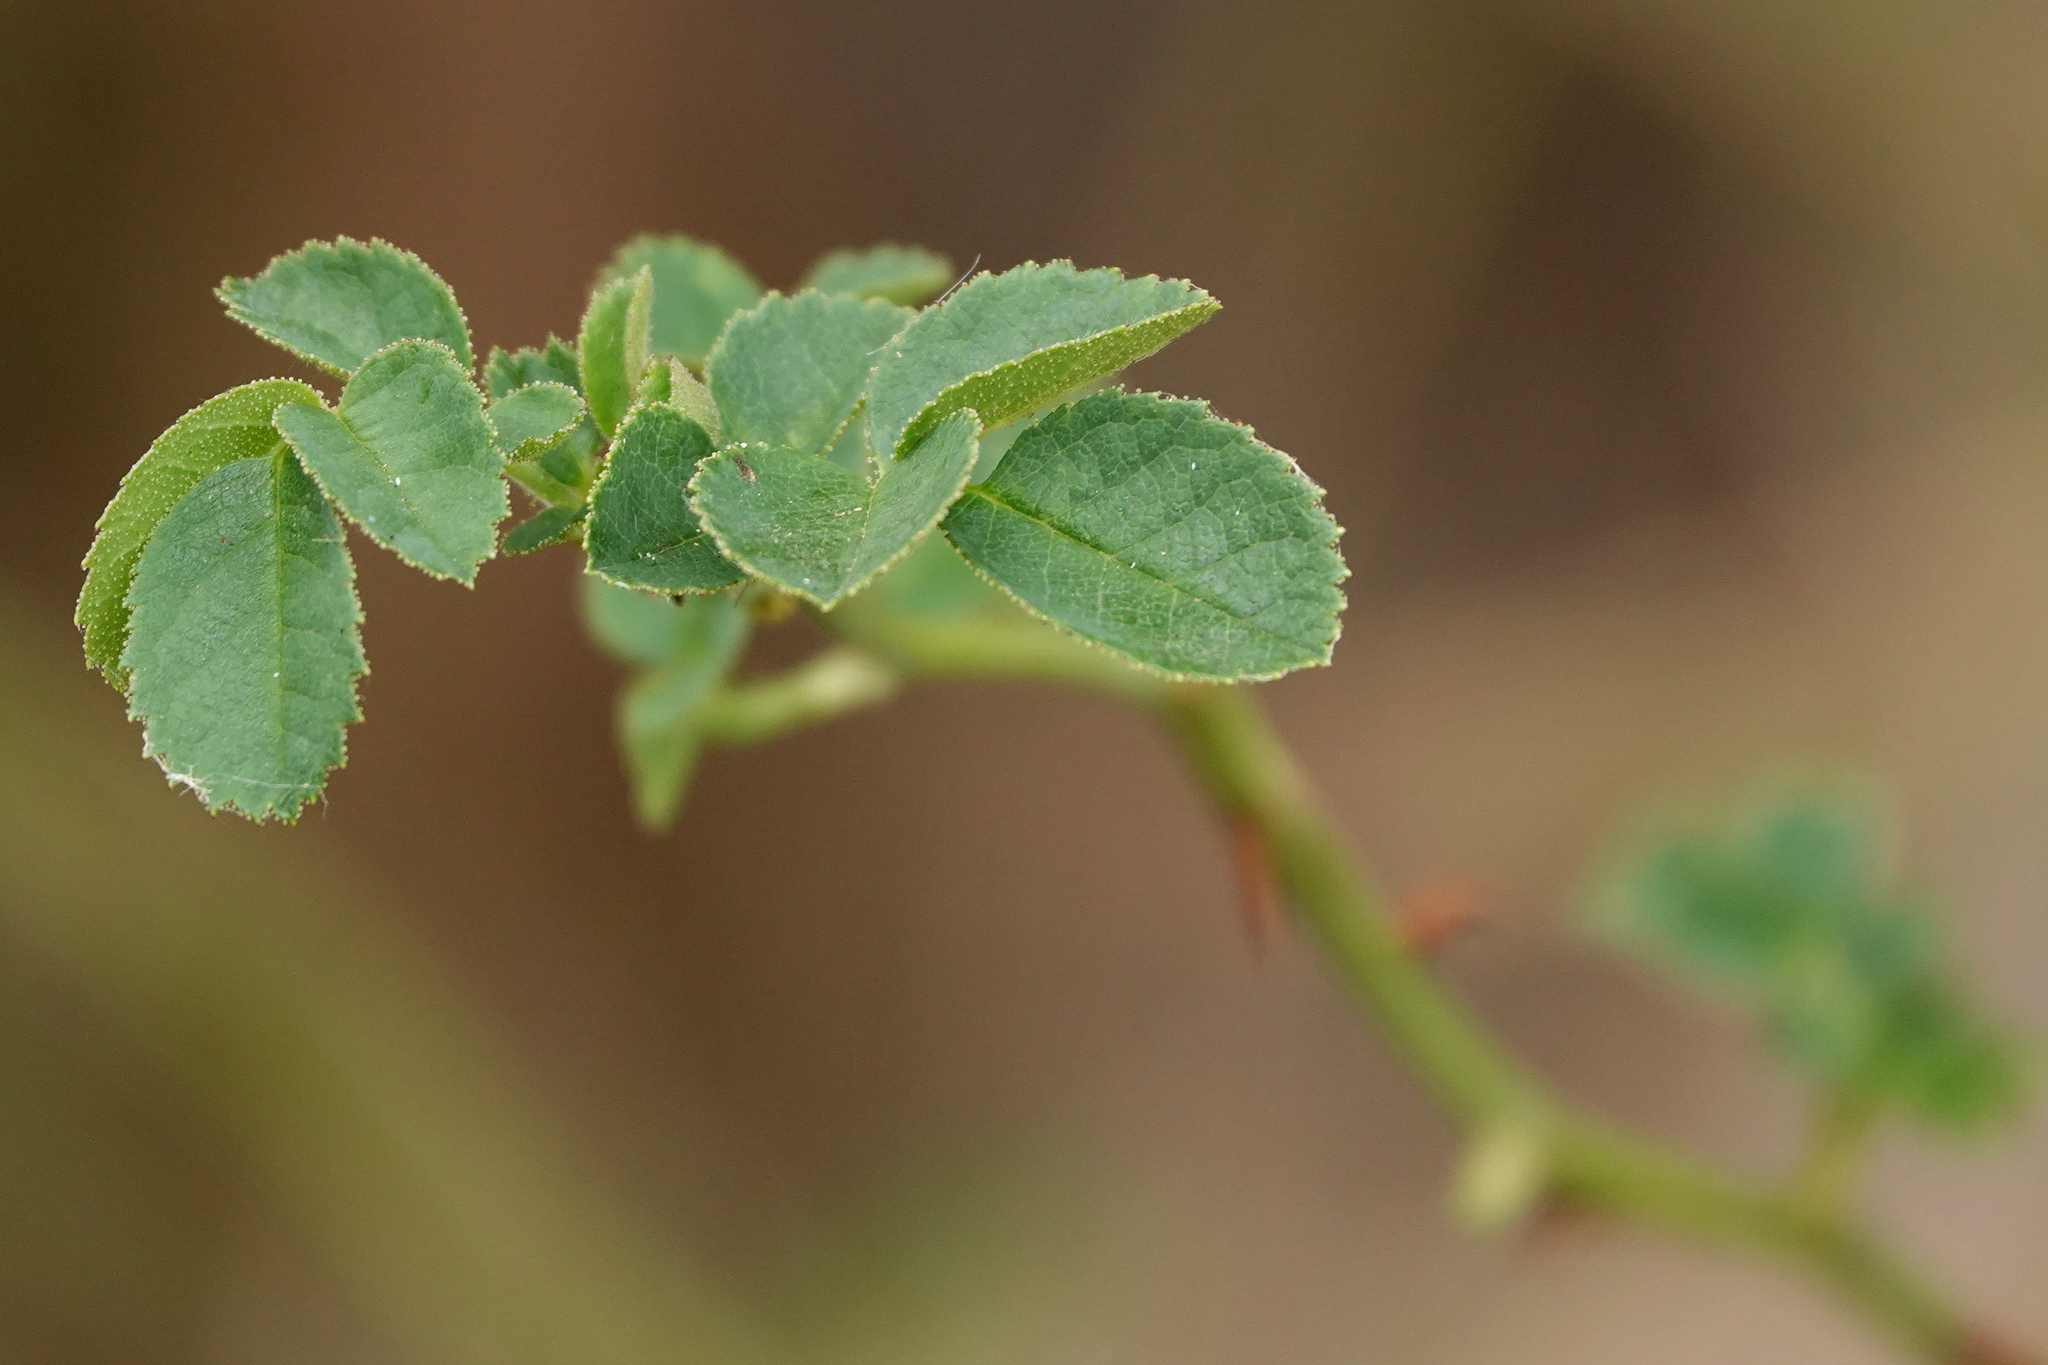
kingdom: Plantae
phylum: Tracheophyta
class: Magnoliopsida
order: Rosales
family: Rosaceae
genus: Rosa
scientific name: Rosa rubiginosa
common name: Sweet-briar
